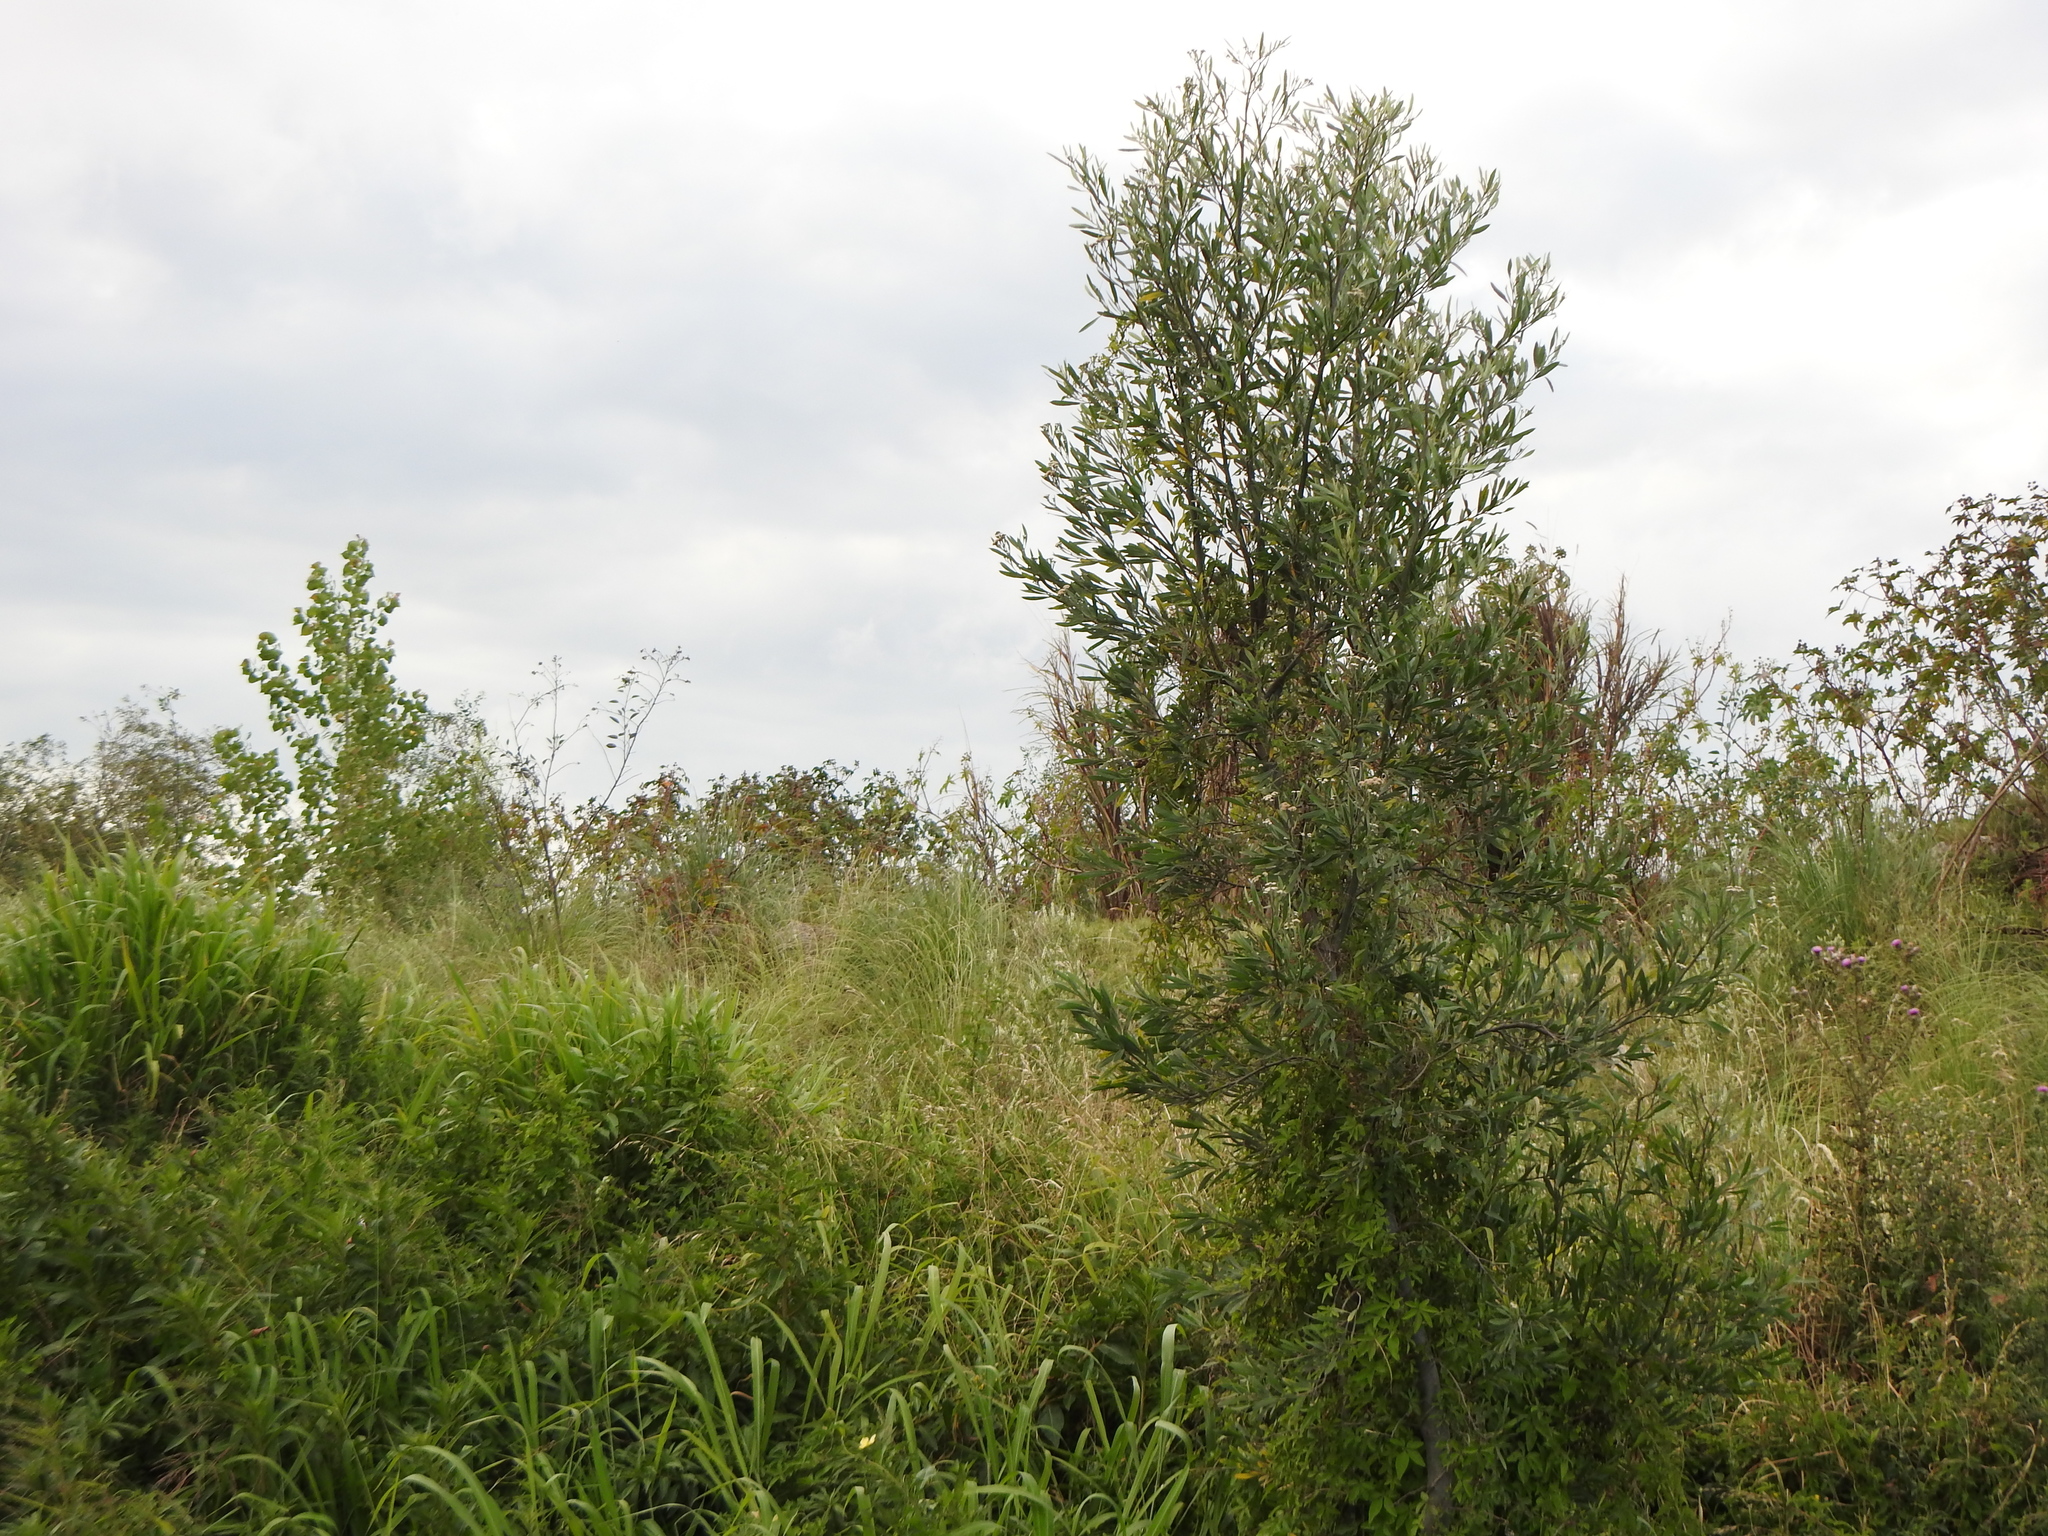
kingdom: Plantae
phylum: Tracheophyta
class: Magnoliopsida
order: Asterales
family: Asteraceae
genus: Tessaria
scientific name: Tessaria integrifolia
